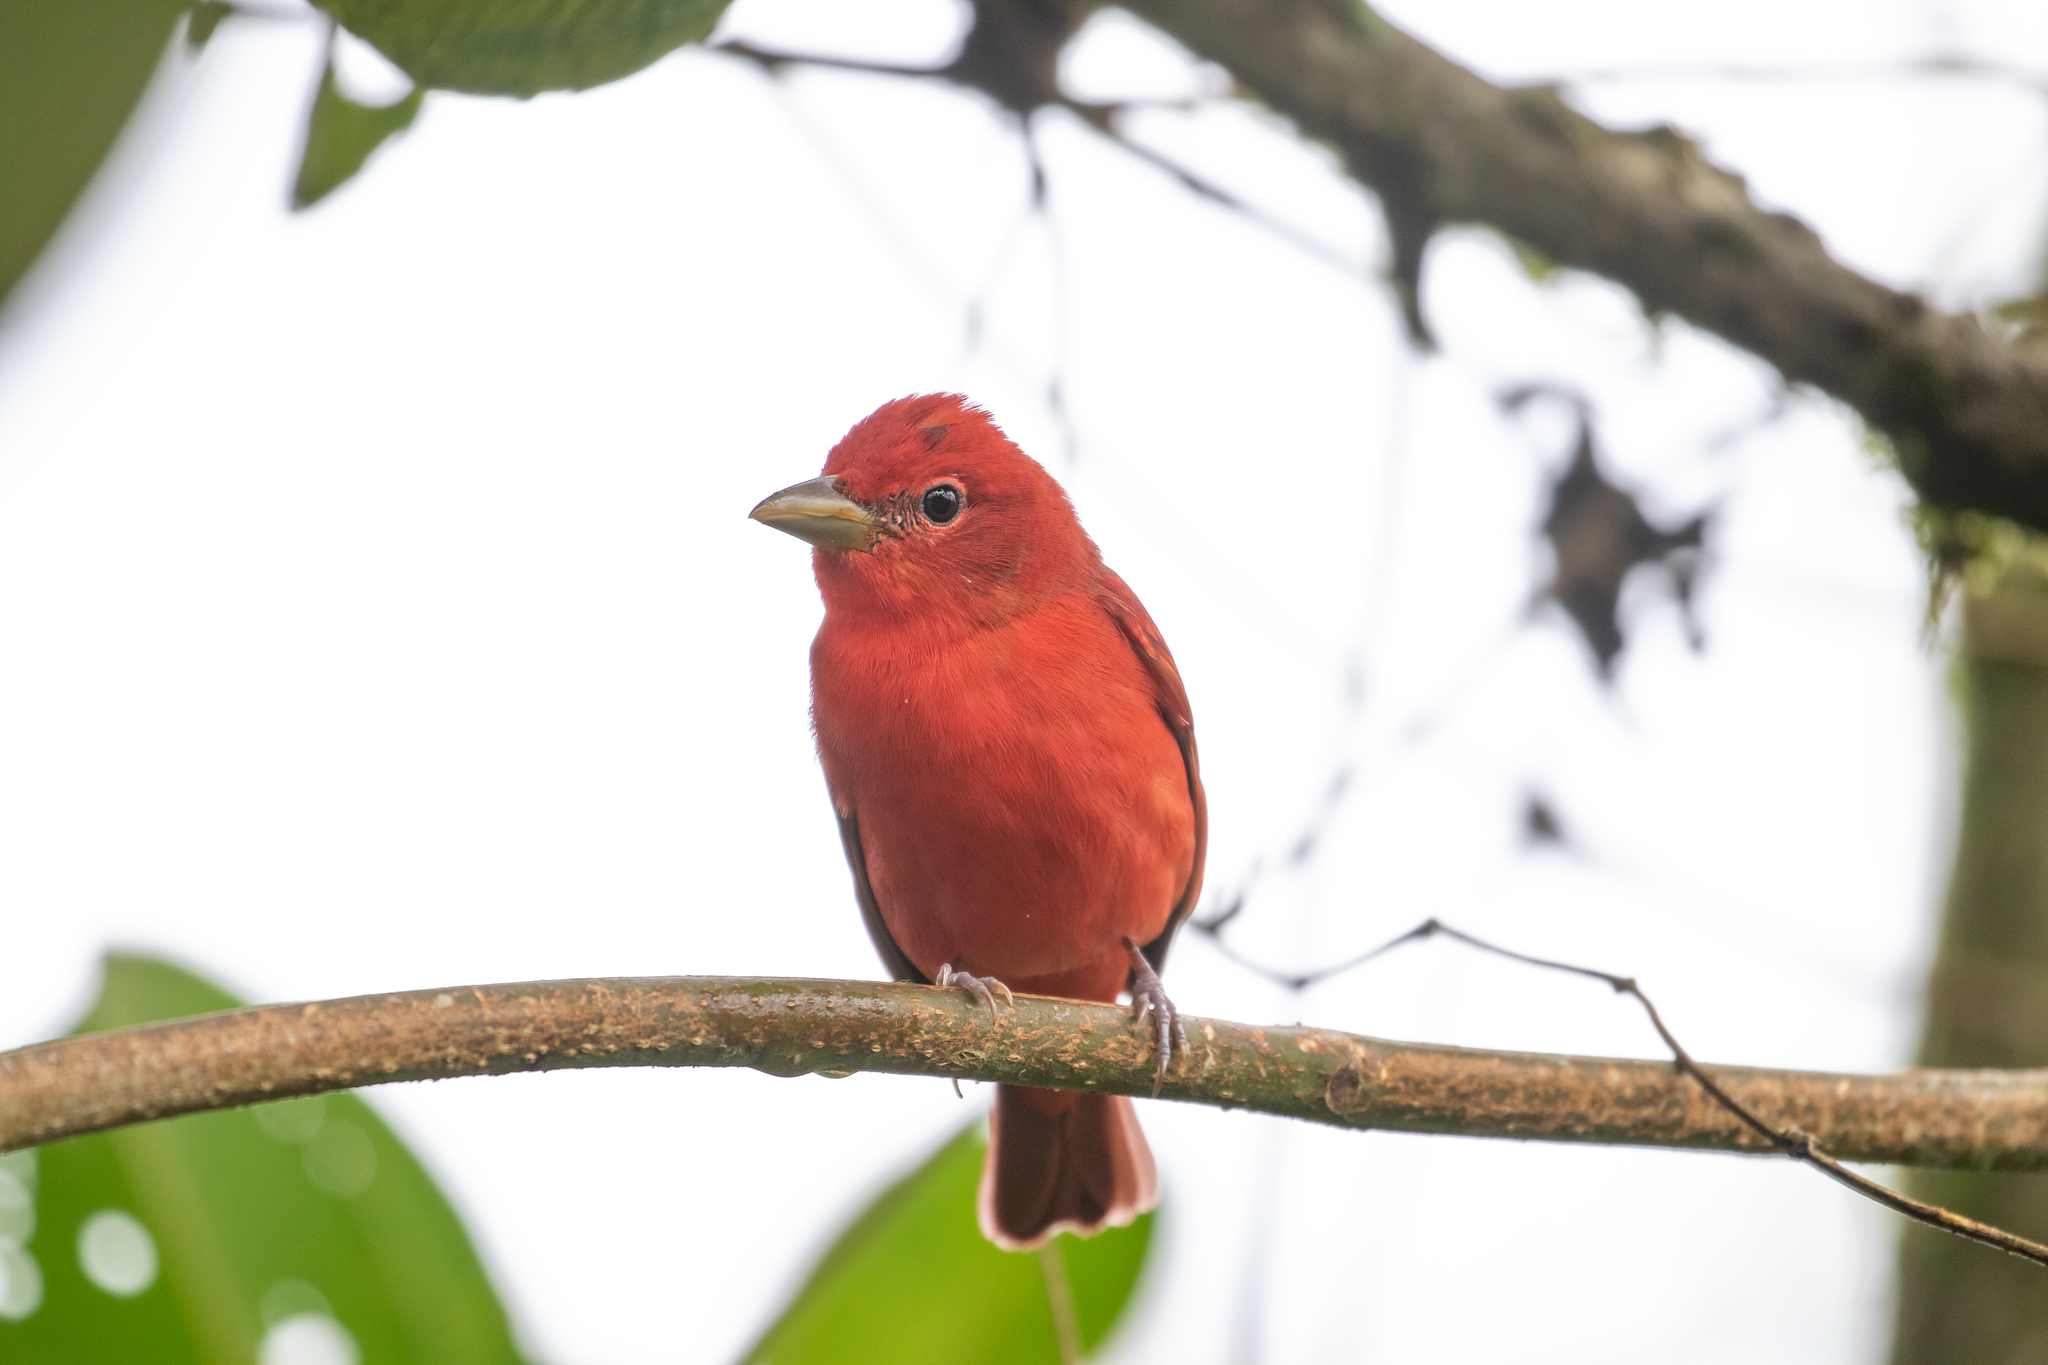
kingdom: Animalia
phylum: Chordata
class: Aves
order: Passeriformes
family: Cardinalidae
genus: Piranga
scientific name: Piranga rubra
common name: Summer tanager
